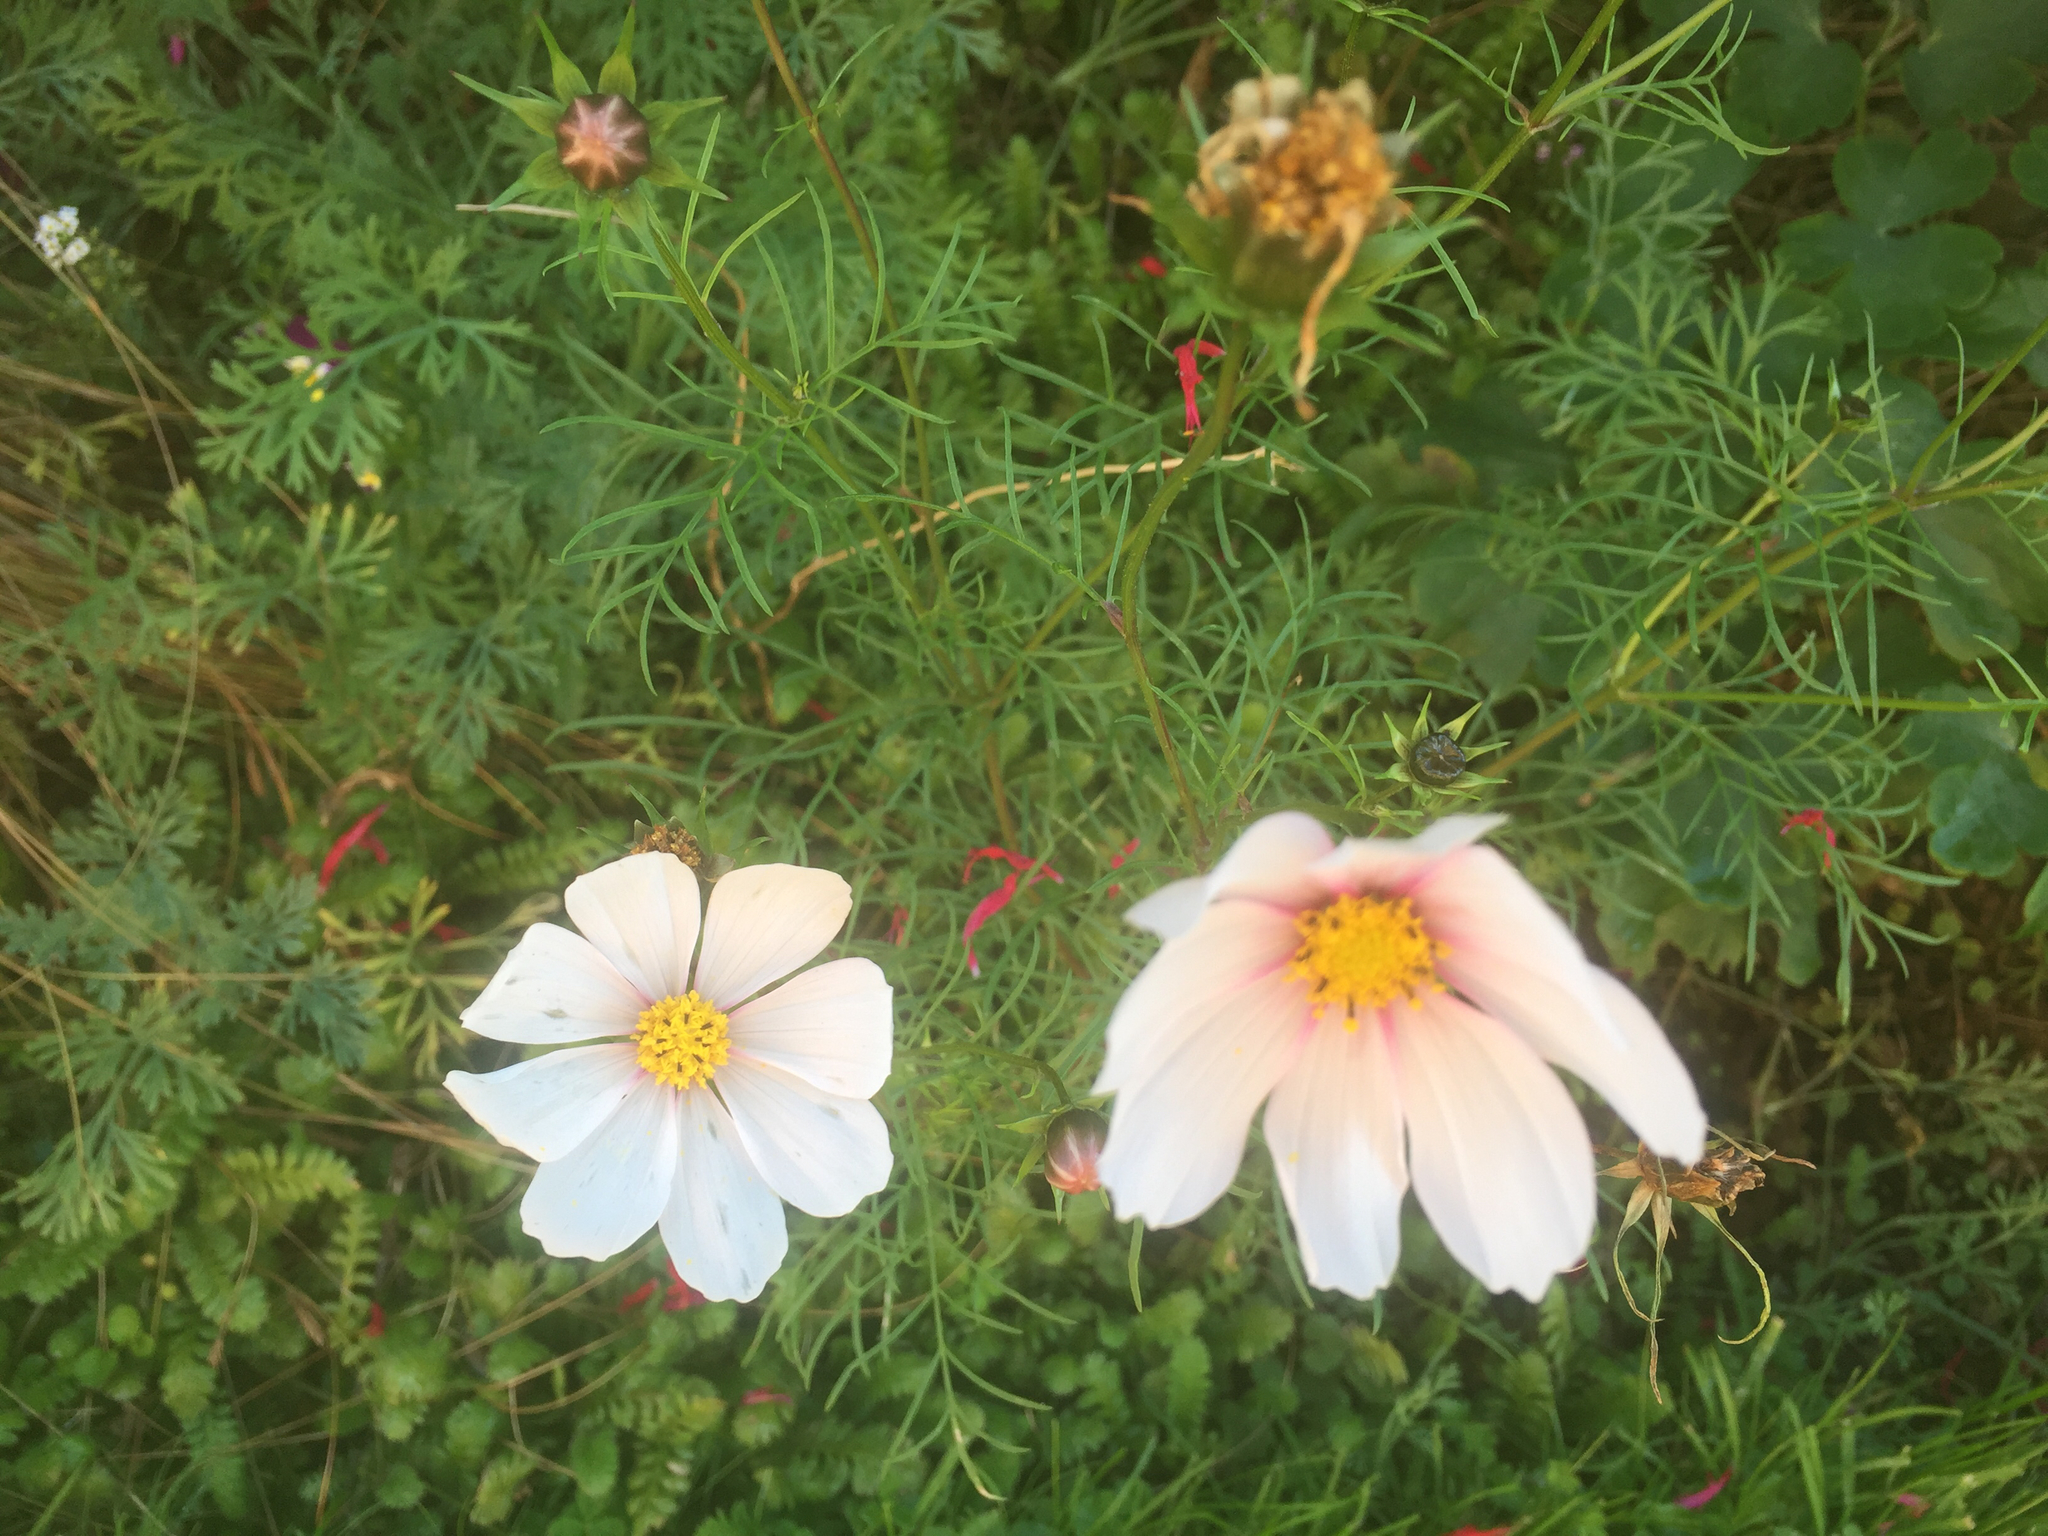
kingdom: Plantae
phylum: Tracheophyta
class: Magnoliopsida
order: Asterales
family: Asteraceae
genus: Cosmos
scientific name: Cosmos bipinnatus
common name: Garden cosmos
